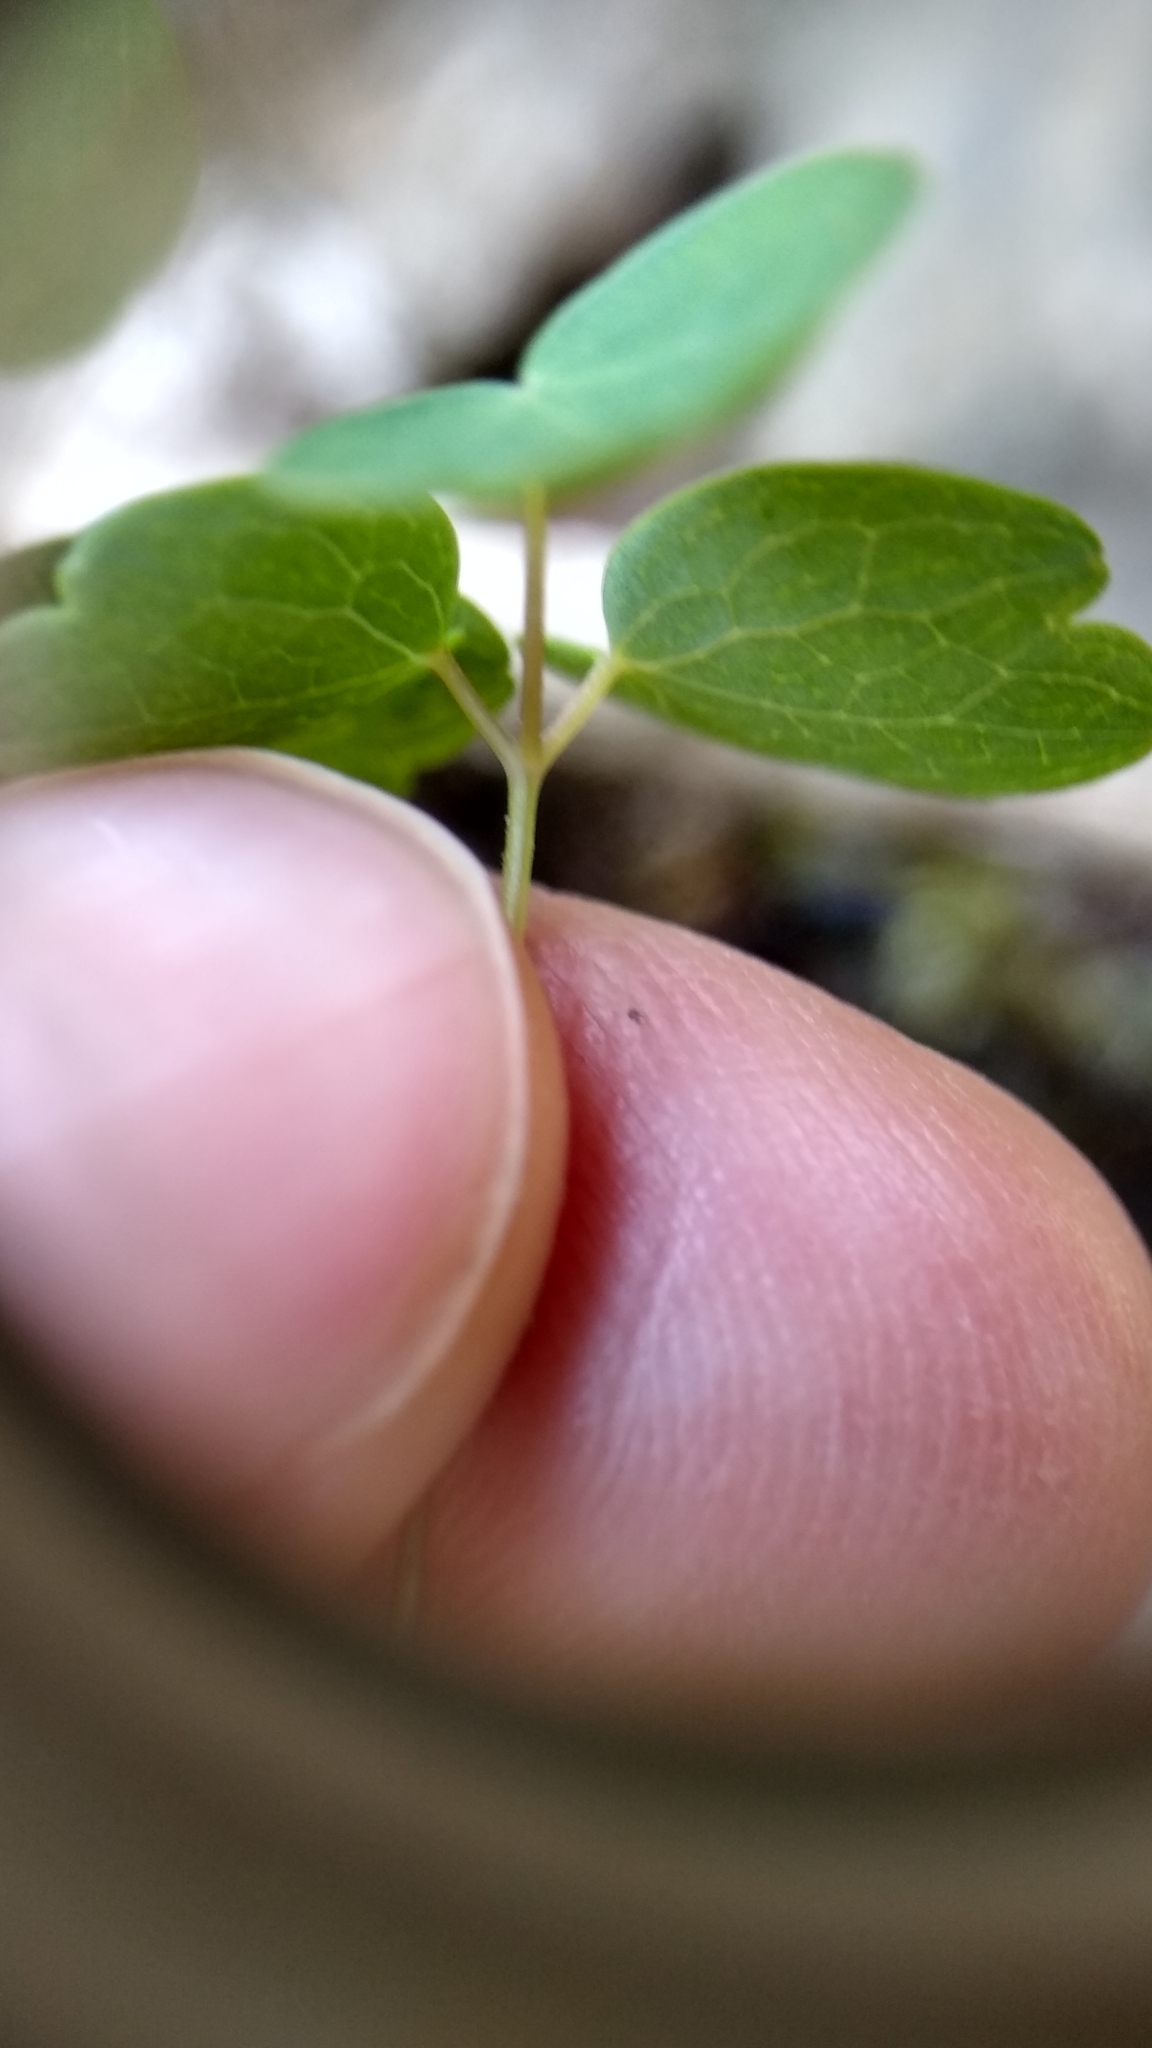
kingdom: Plantae
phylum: Tracheophyta
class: Magnoliopsida
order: Ranunculales
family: Ranunculaceae
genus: Thalictrum
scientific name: Thalictrum thalictroides
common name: Rue-anemone
